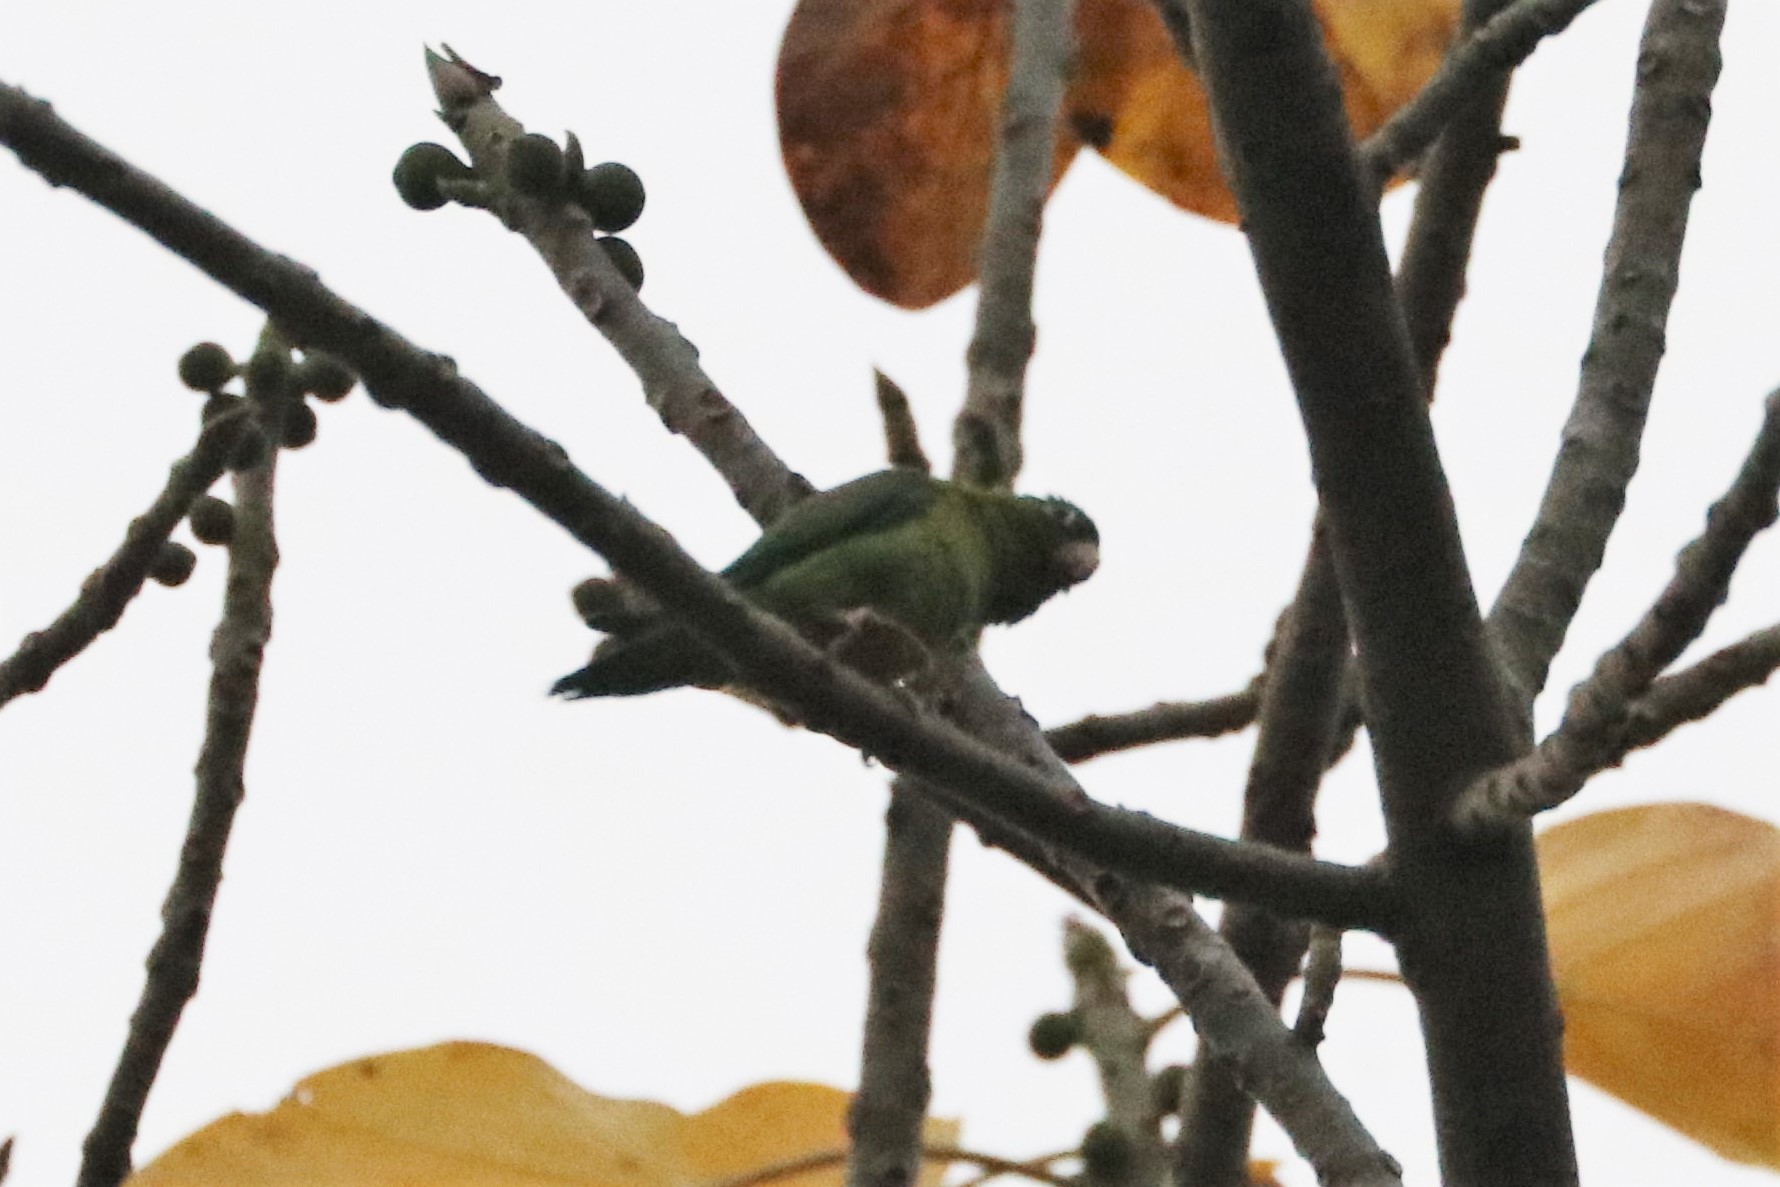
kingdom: Animalia
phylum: Chordata
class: Aves
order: Psittaciformes
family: Psittacidae
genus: Brotogeris
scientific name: Brotogeris jugularis
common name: Orange-chinned parakeet
